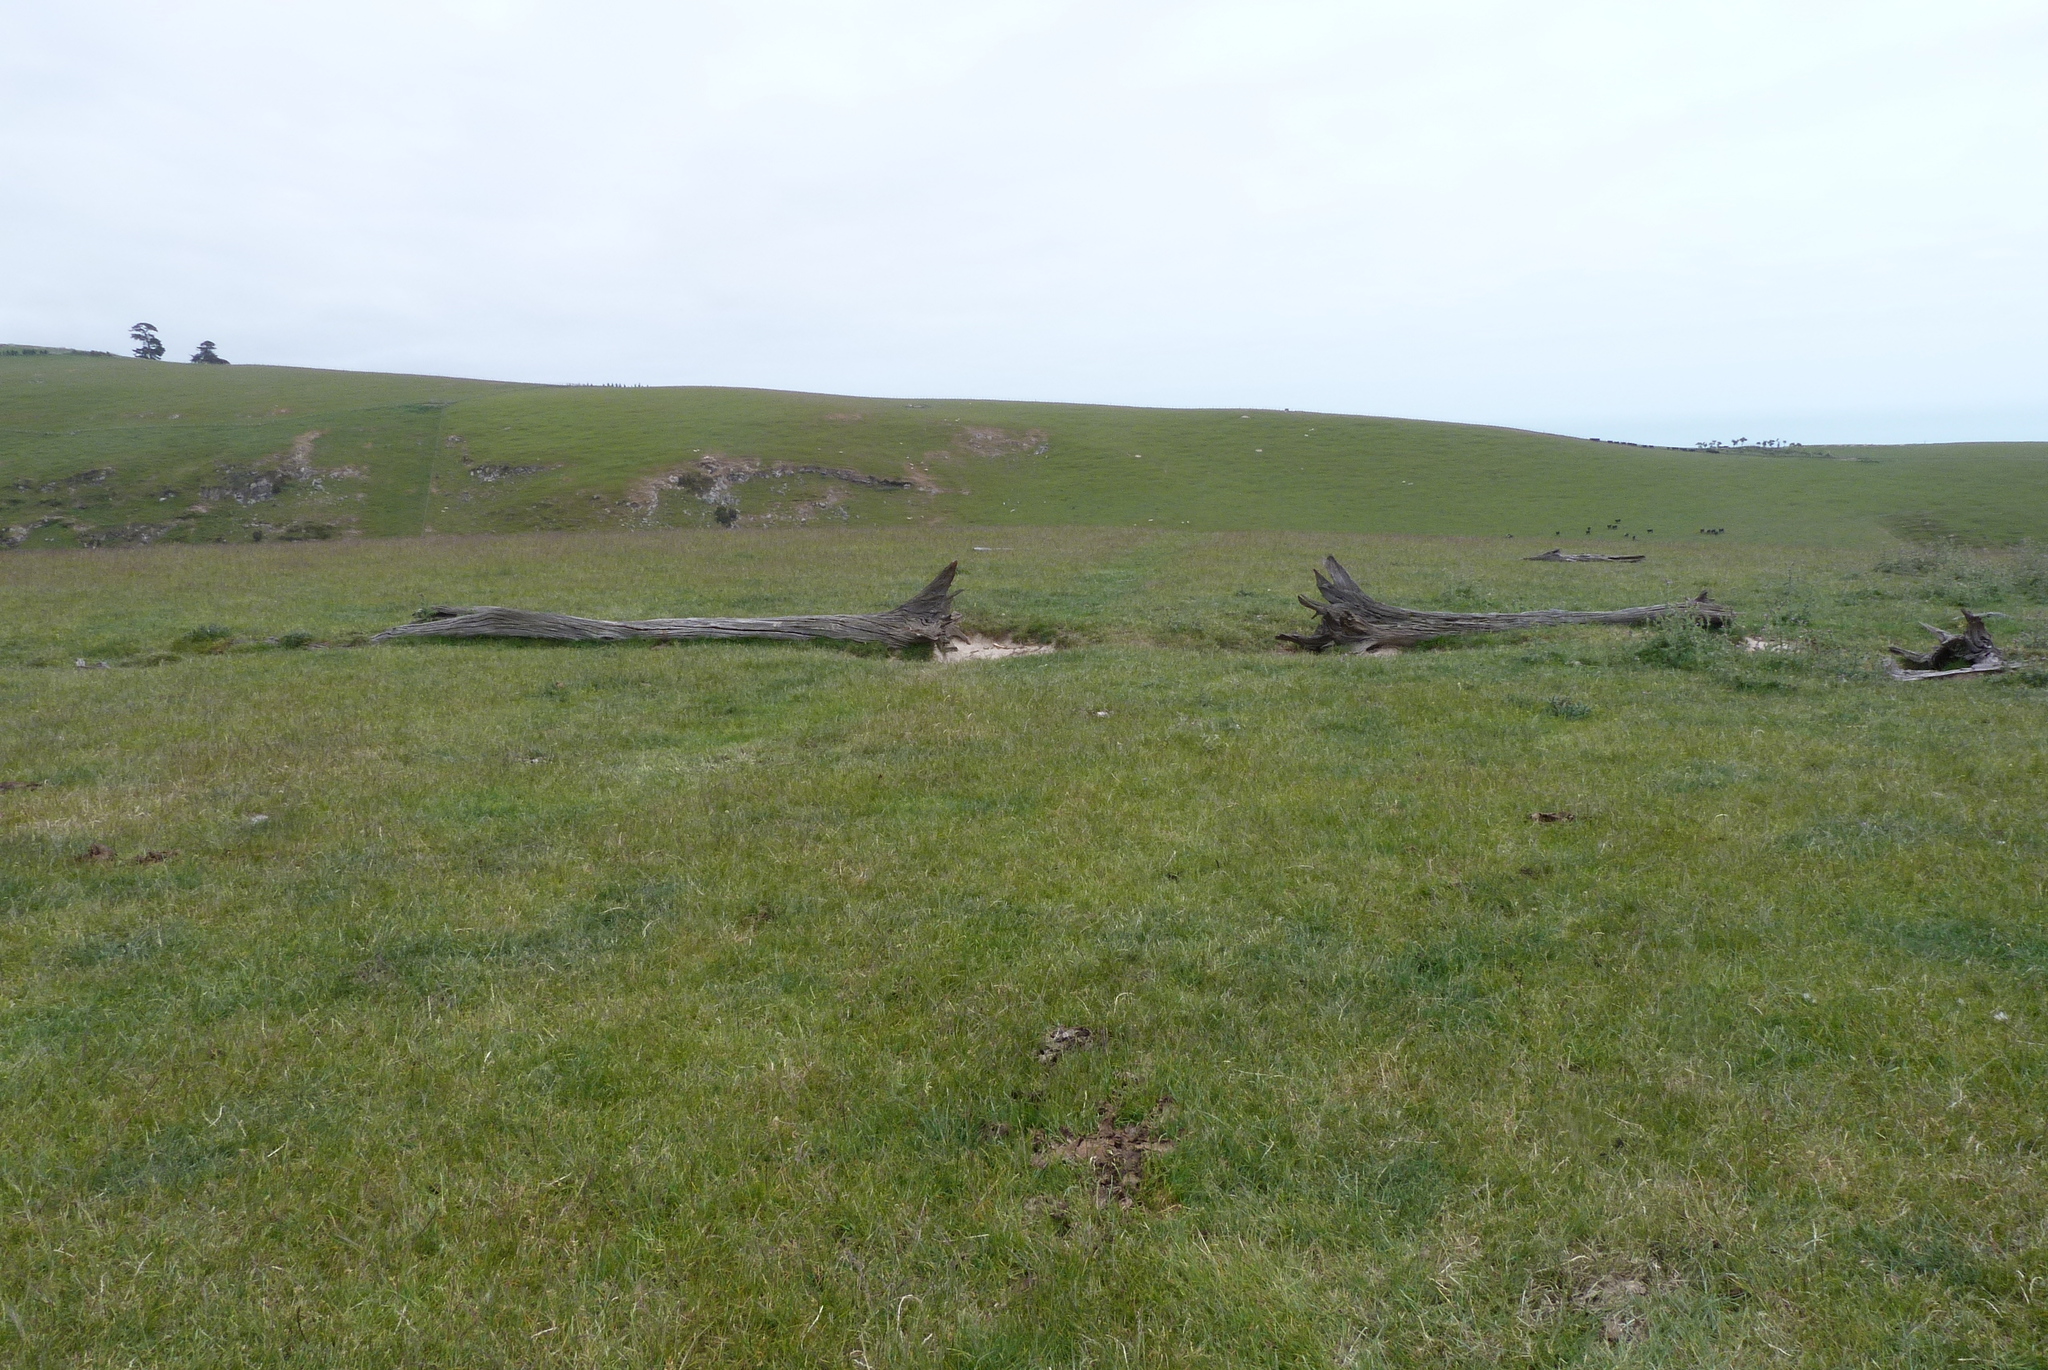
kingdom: Plantae
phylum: Tracheophyta
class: Pinopsida
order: Pinales
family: Podocarpaceae
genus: Podocarpus
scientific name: Podocarpus totara
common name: Totara
